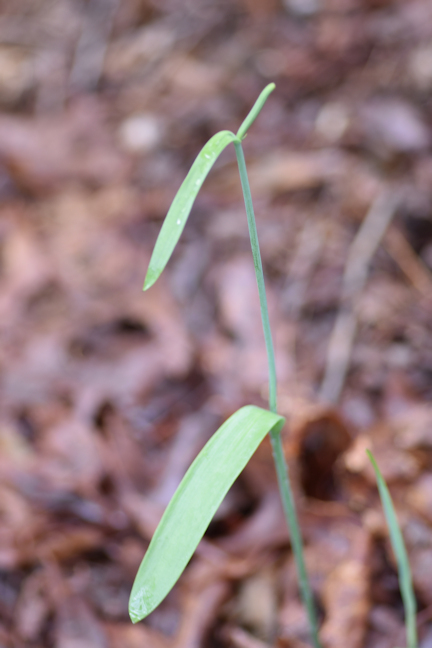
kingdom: Plantae
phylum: Tracheophyta
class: Liliopsida
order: Asparagales
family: Orchidaceae
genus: Cleistesiopsis
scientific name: Cleistesiopsis bifaria
